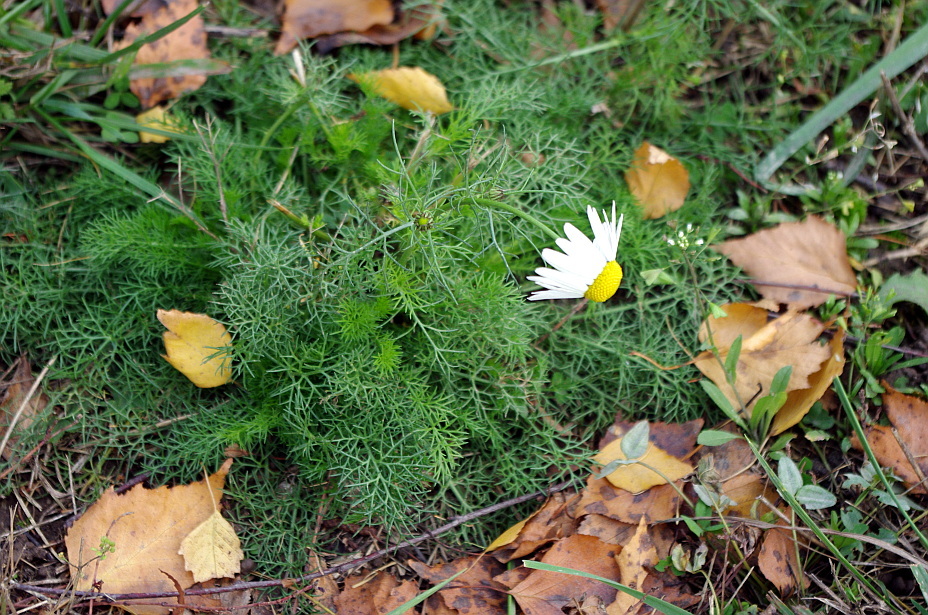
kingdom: Plantae
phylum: Tracheophyta
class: Magnoliopsida
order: Asterales
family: Asteraceae
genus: Tripleurospermum
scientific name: Tripleurospermum inodorum
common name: Scentless mayweed
